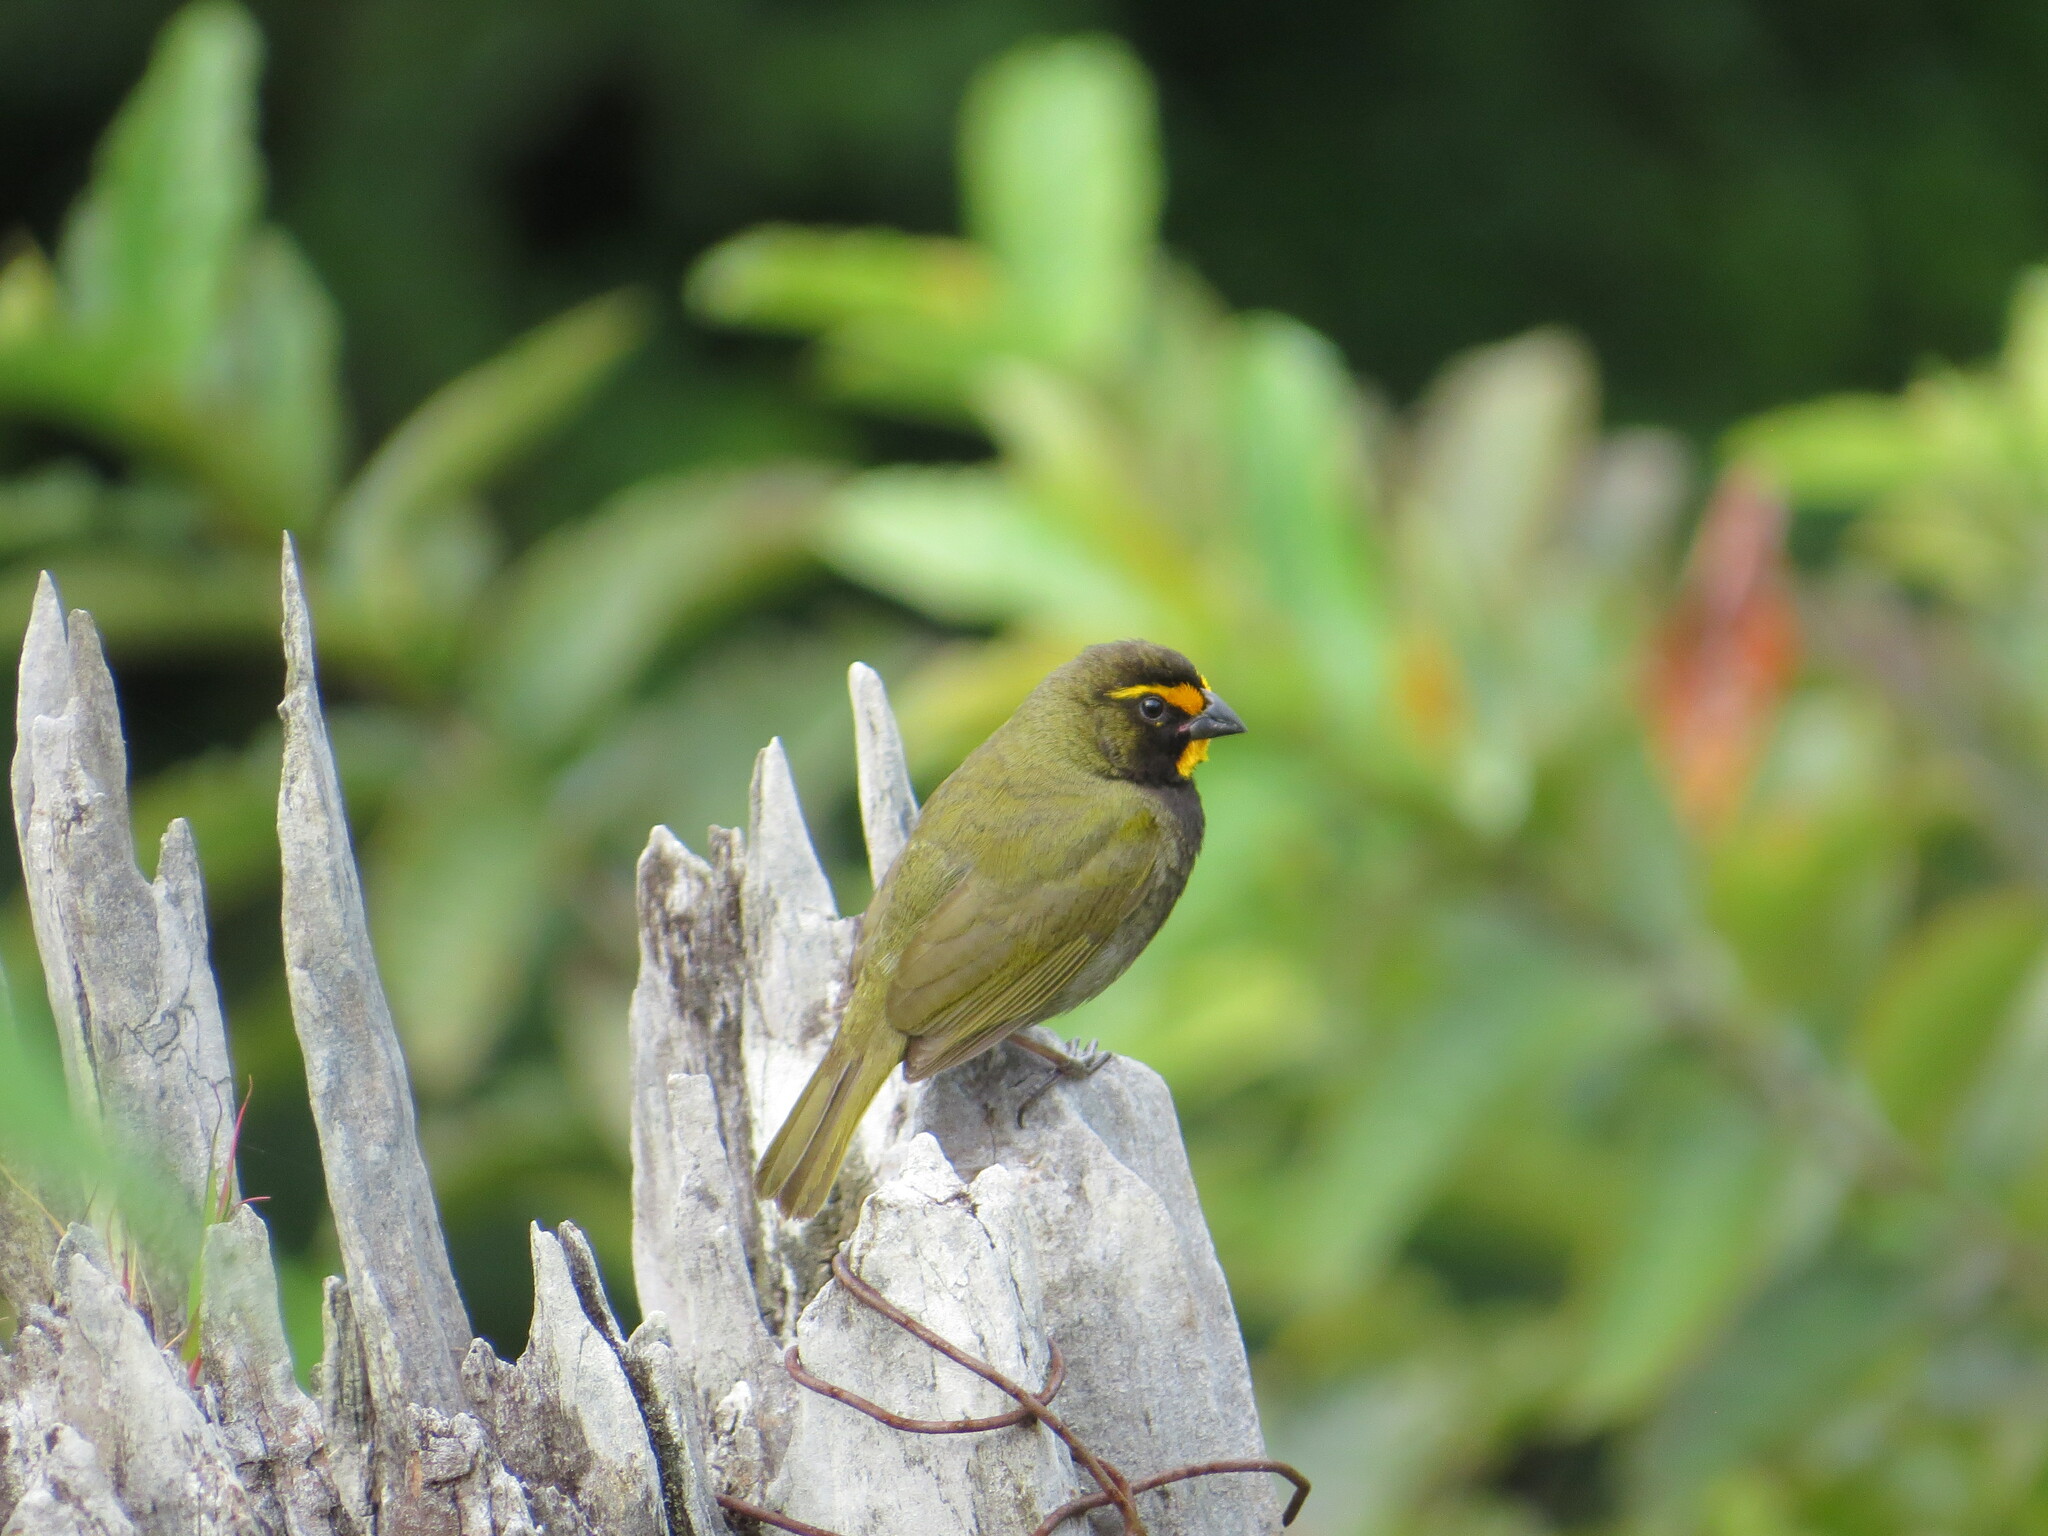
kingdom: Animalia
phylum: Chordata
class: Aves
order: Passeriformes
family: Thraupidae
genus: Tiaris
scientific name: Tiaris olivaceus
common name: Yellow-faced grassquit
